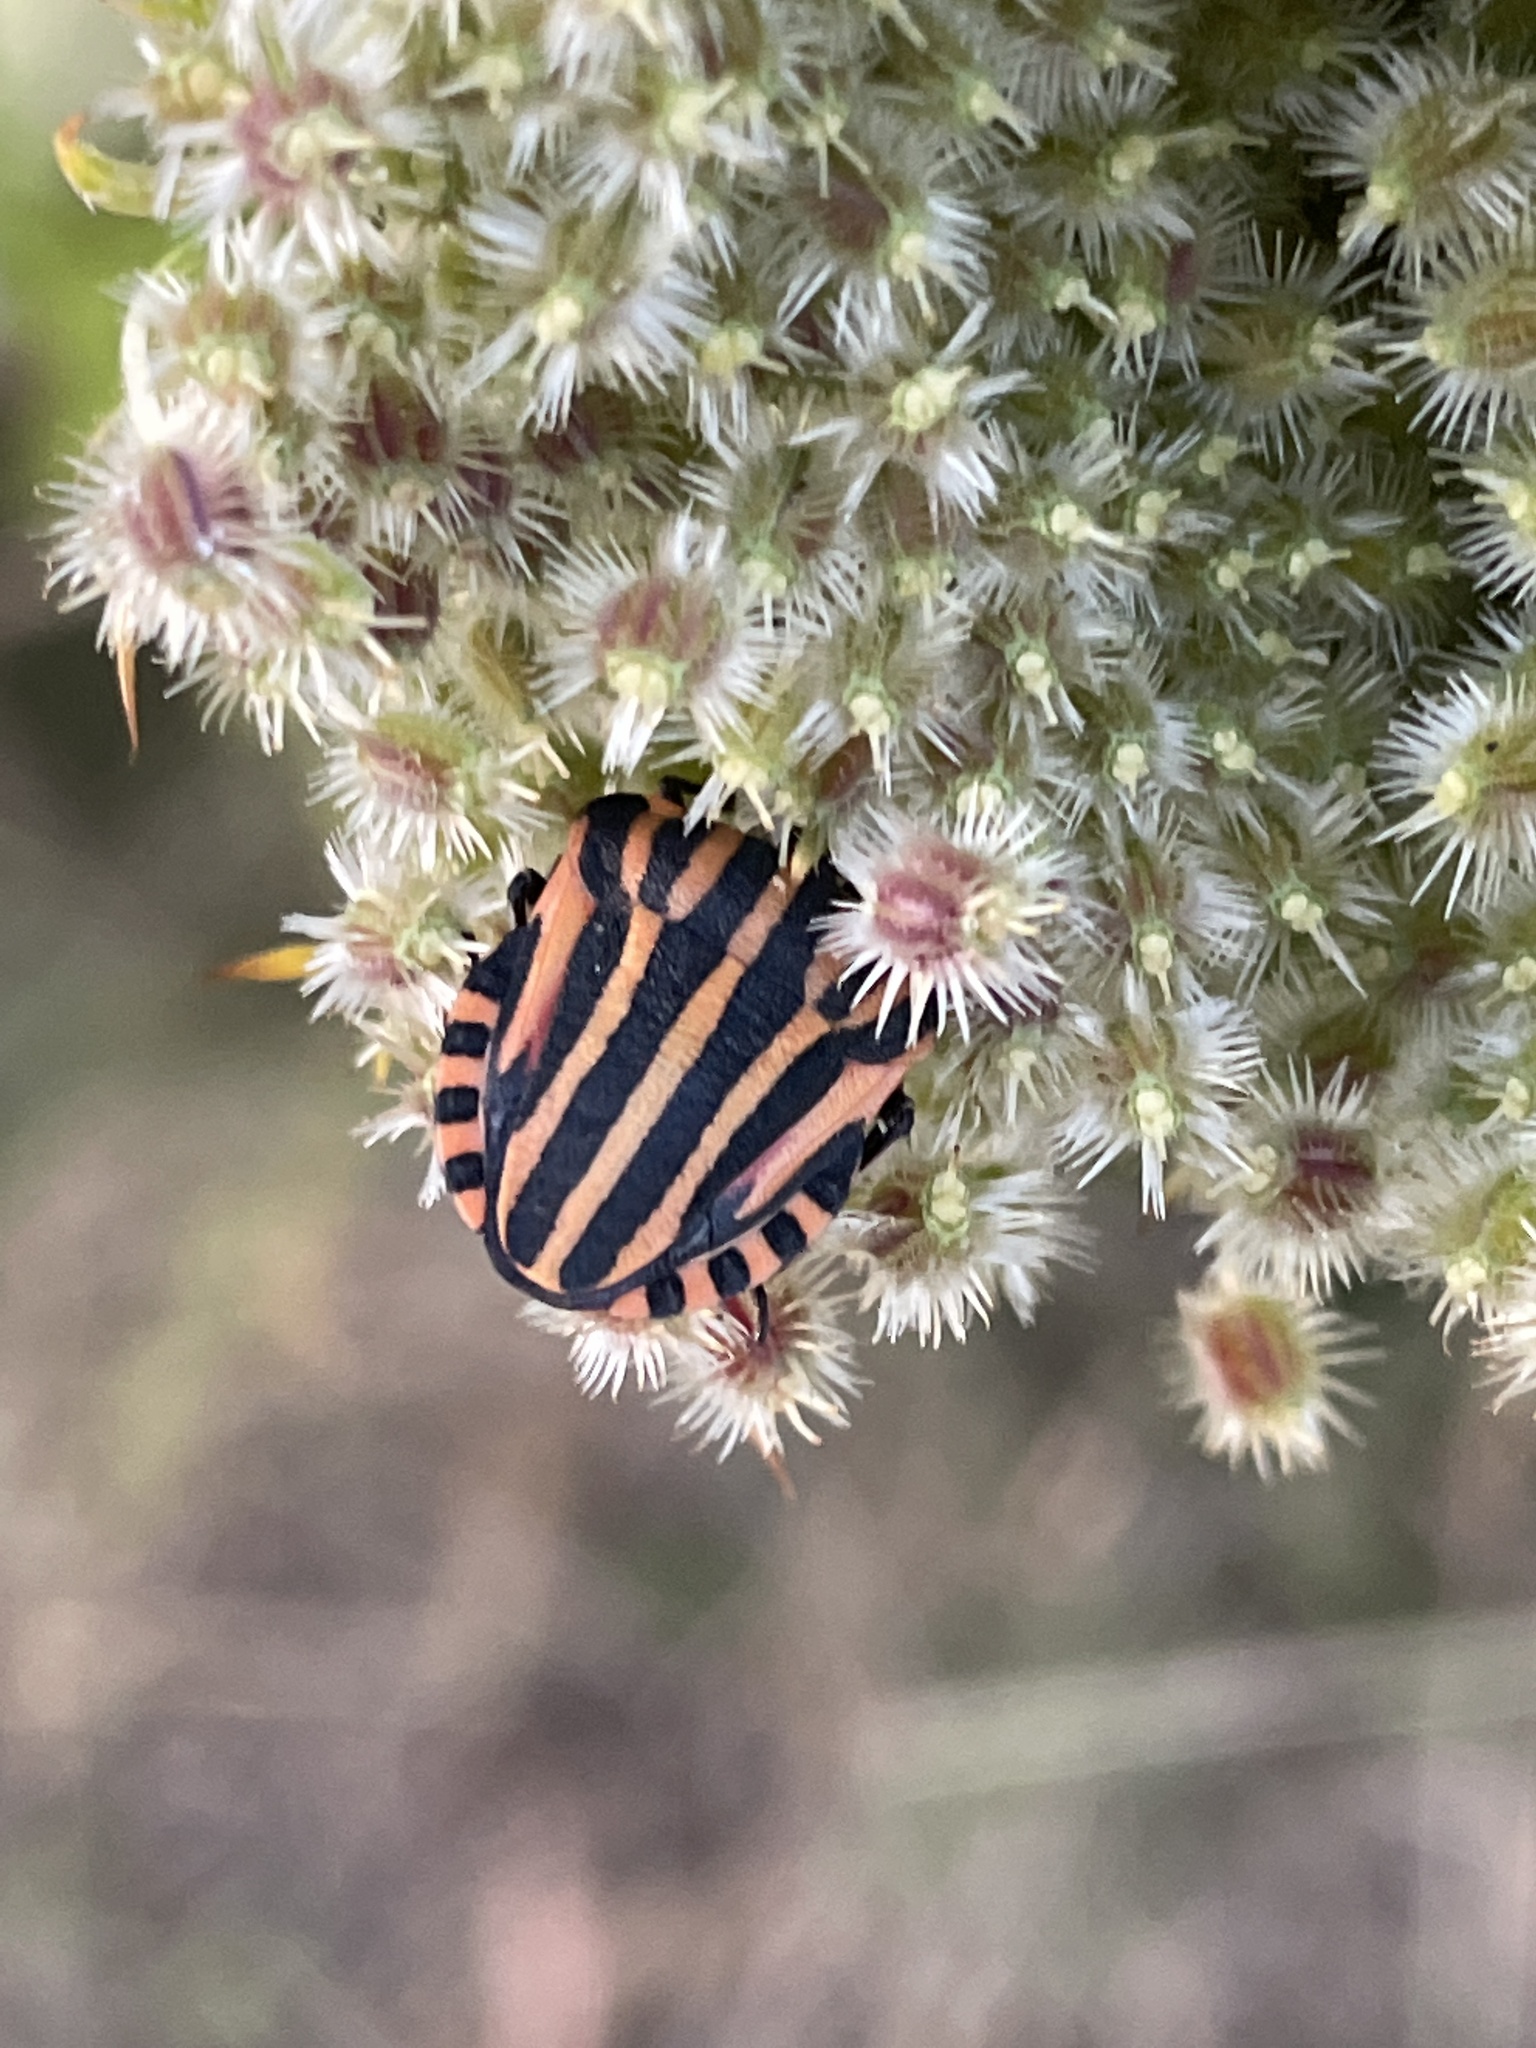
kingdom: Animalia
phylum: Arthropoda
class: Insecta
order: Hemiptera
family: Pentatomidae
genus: Graphosoma
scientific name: Graphosoma italicum
